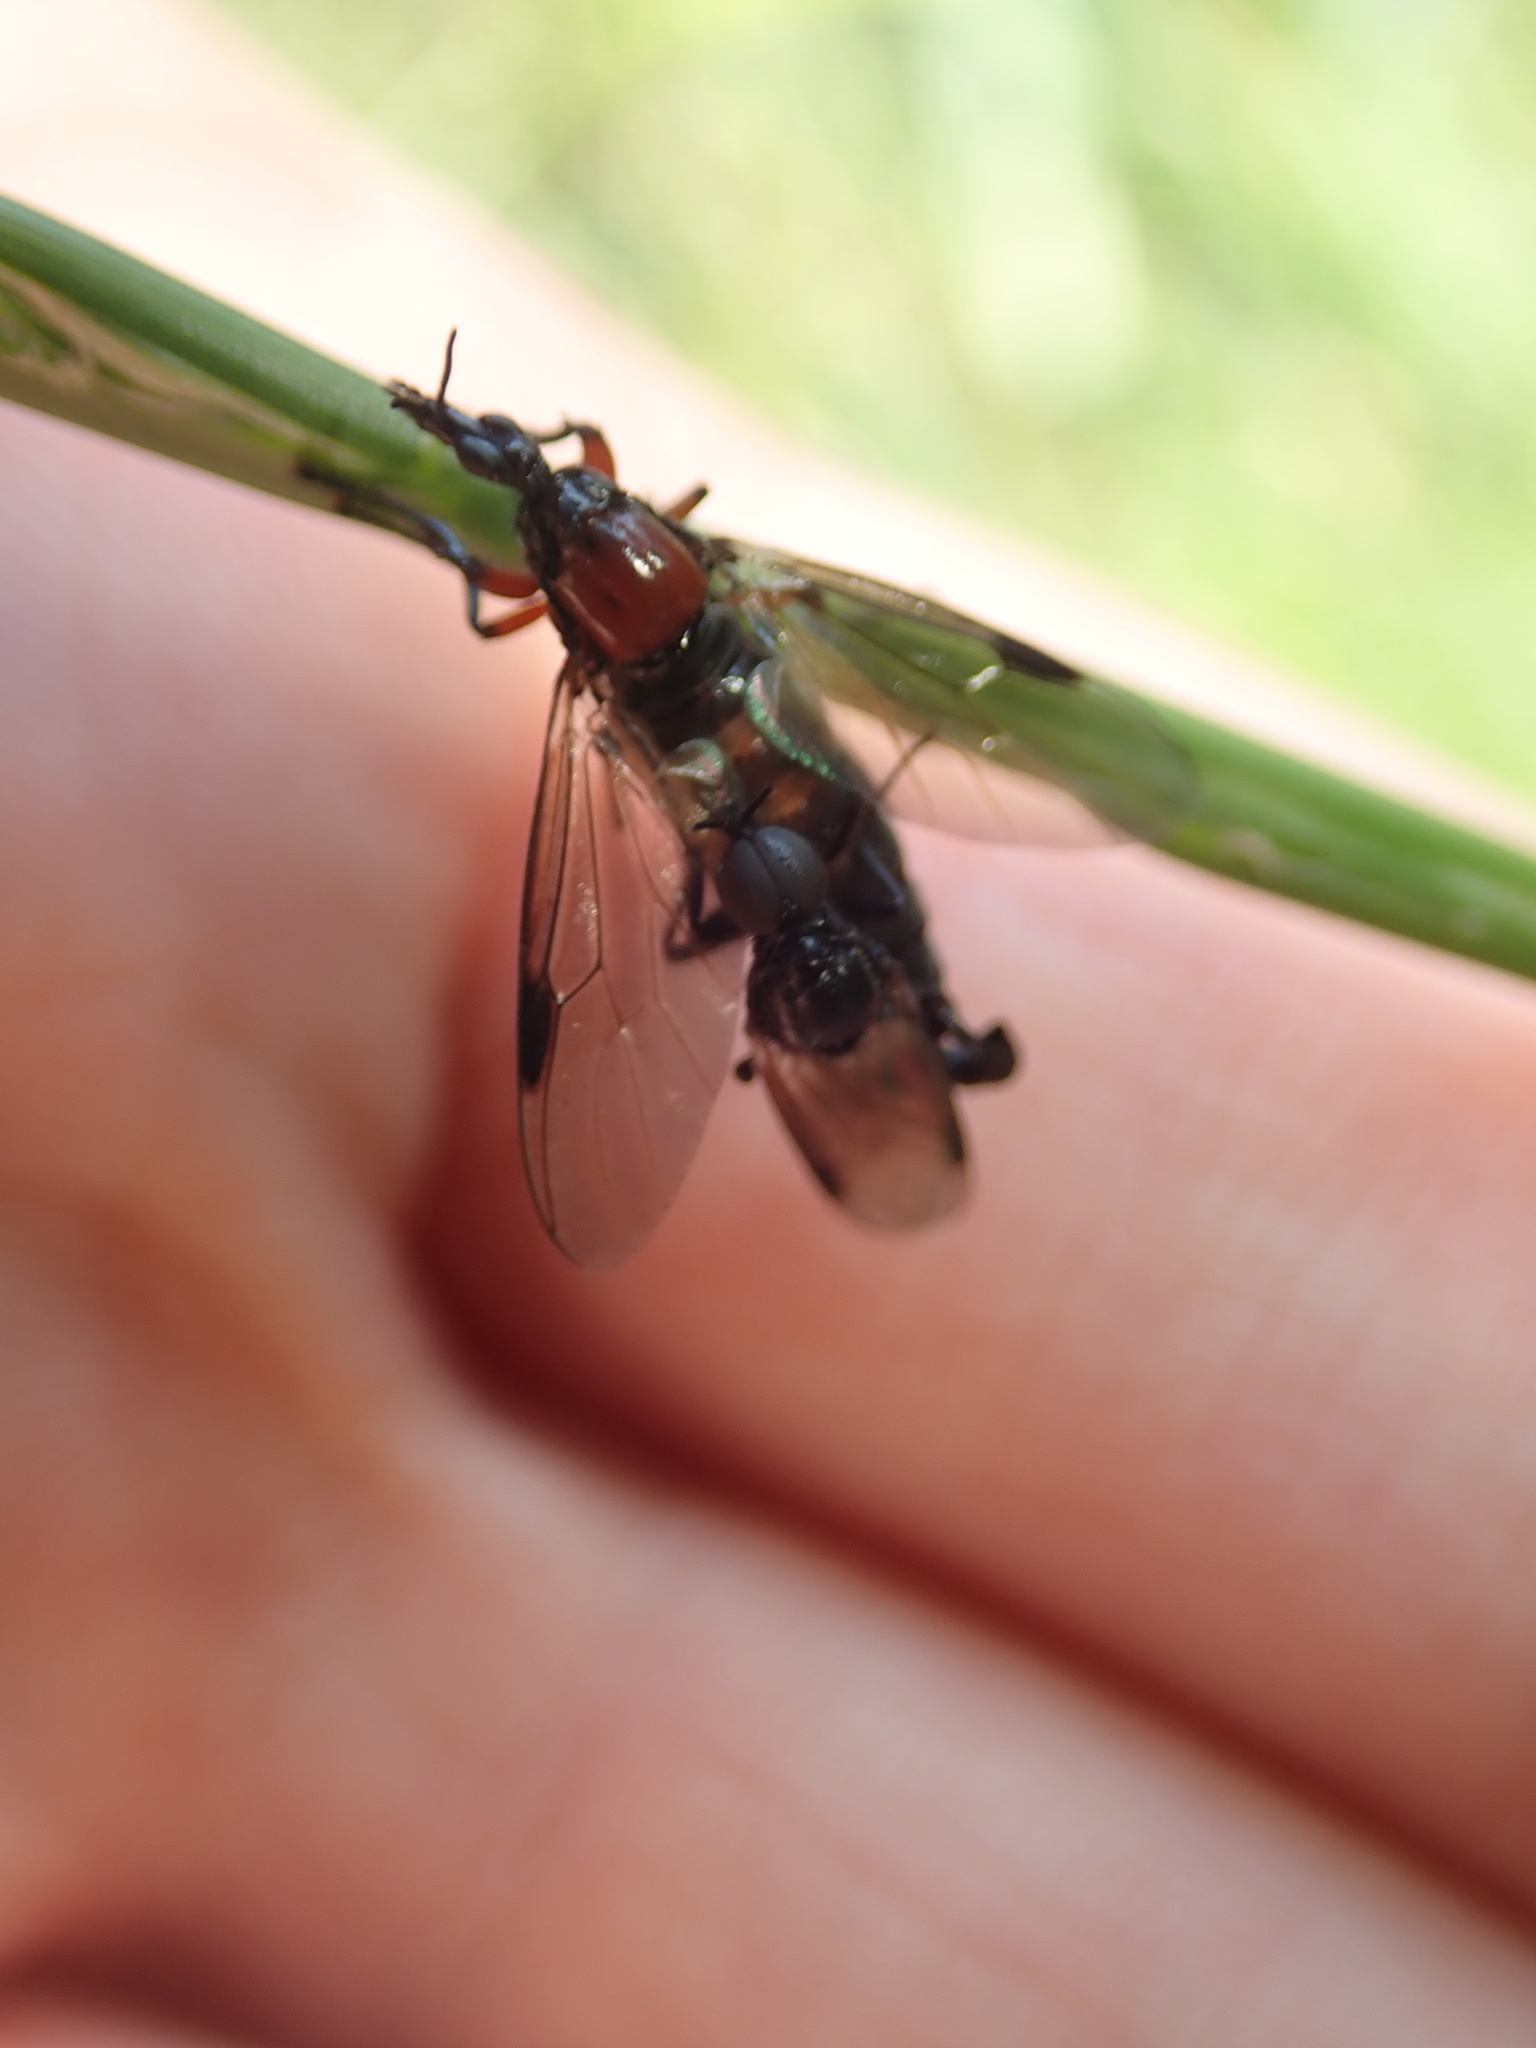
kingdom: Animalia
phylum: Arthropoda
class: Insecta
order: Diptera
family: Bibionidae
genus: Dilophus
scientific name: Dilophus nigrostigma
